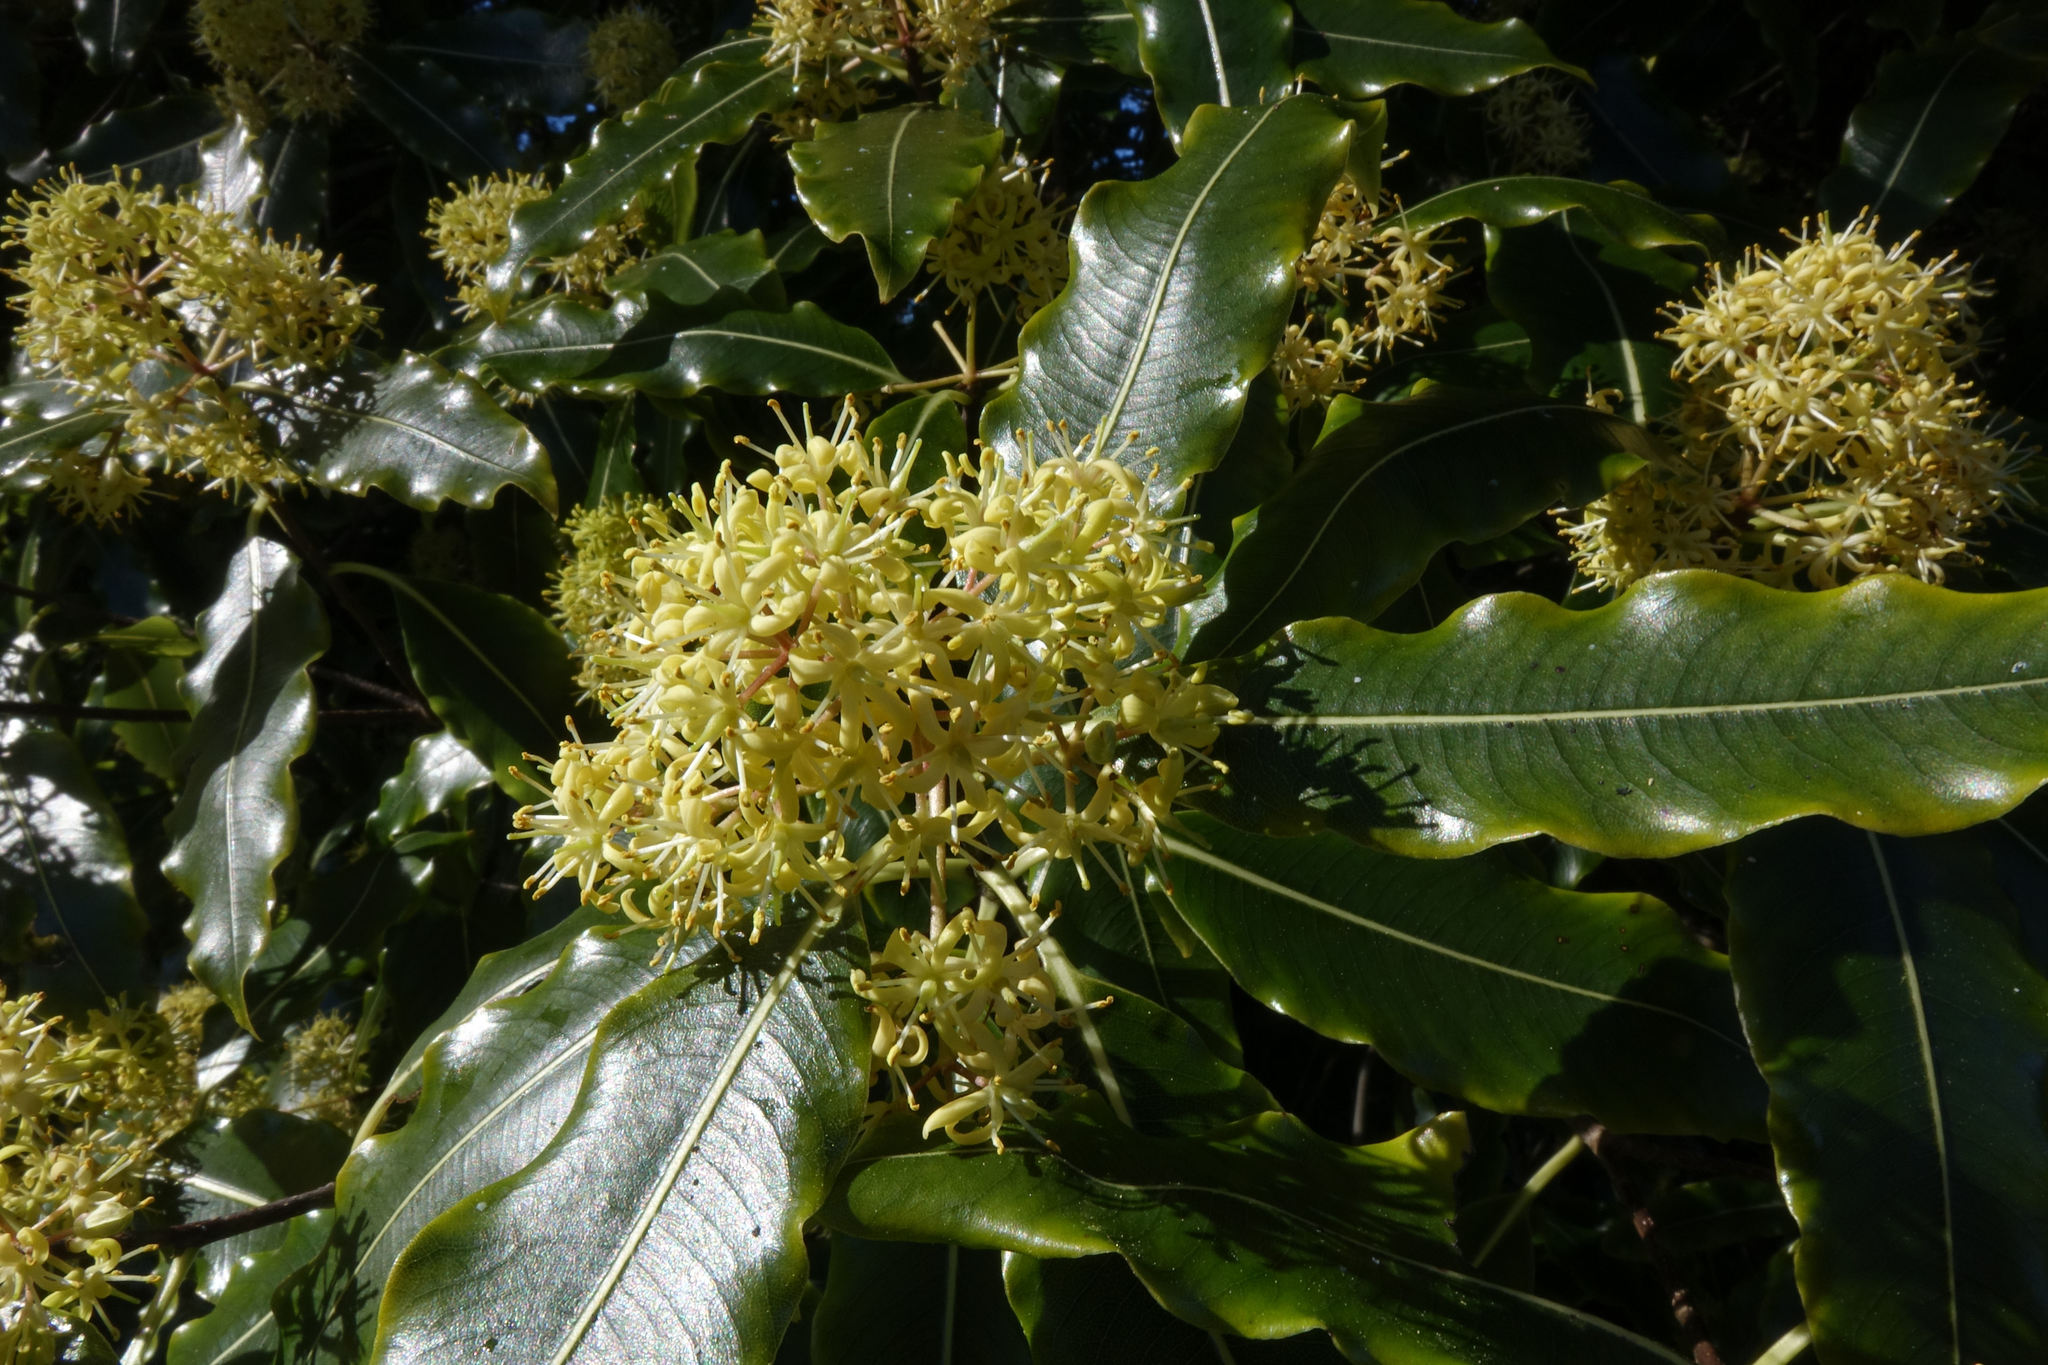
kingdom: Plantae
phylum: Tracheophyta
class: Magnoliopsida
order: Apiales
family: Pittosporaceae
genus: Pittosporum
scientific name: Pittosporum eugenioides
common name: Lemonwood
